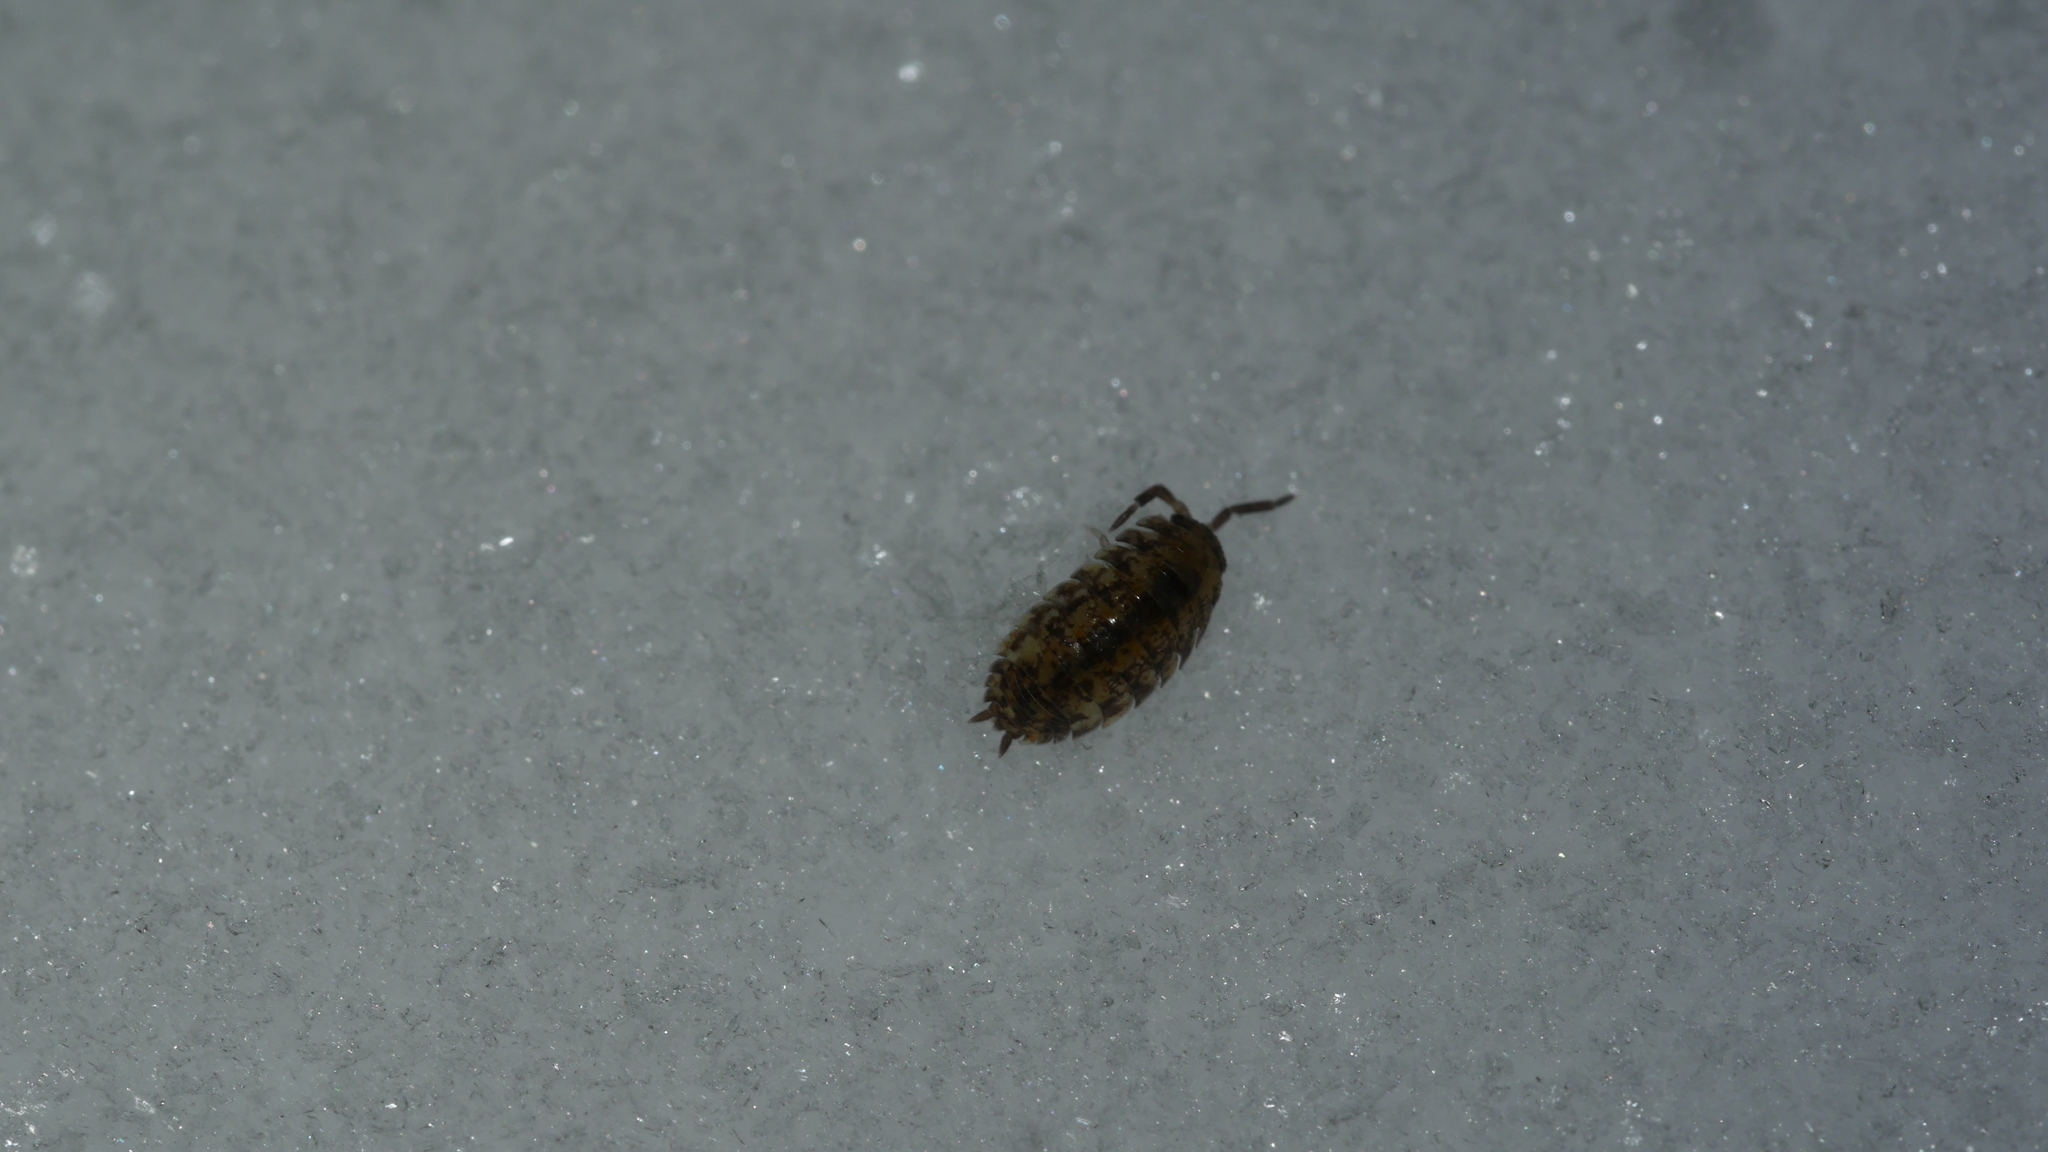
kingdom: Animalia
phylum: Arthropoda
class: Malacostraca
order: Isopoda
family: Porcellionidae
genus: Porcellio
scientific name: Porcellio scaber
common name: Common rough woodlouse
